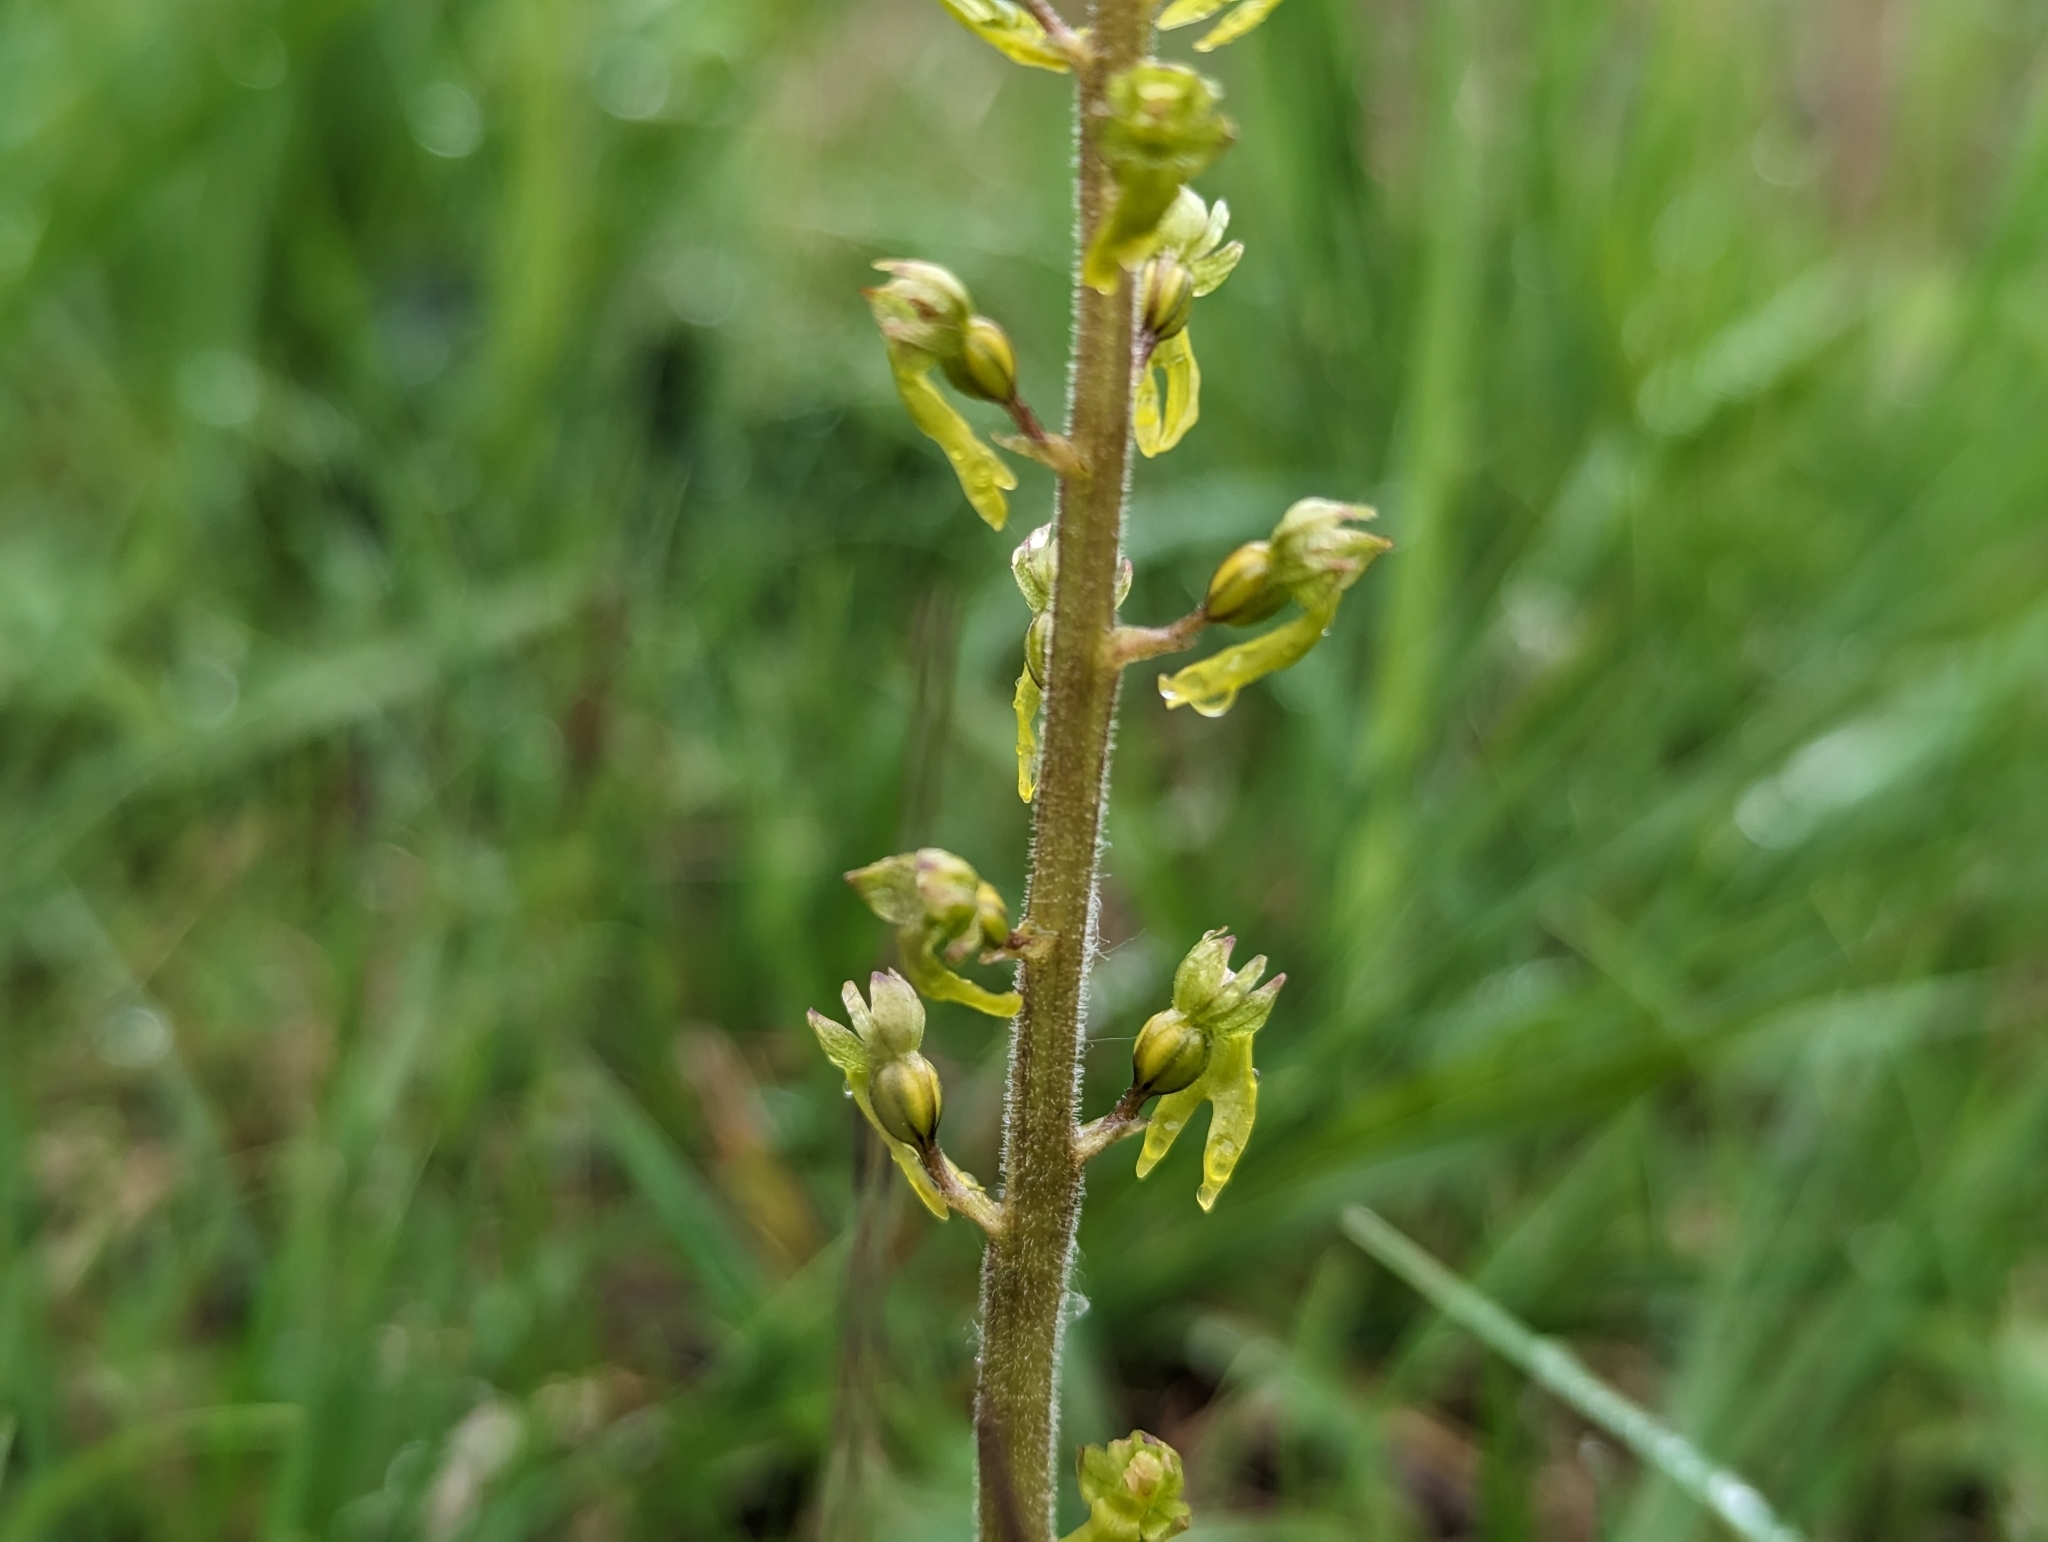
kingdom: Plantae
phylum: Tracheophyta
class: Liliopsida
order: Asparagales
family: Orchidaceae
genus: Neottia
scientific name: Neottia ovata
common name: Common twayblade
